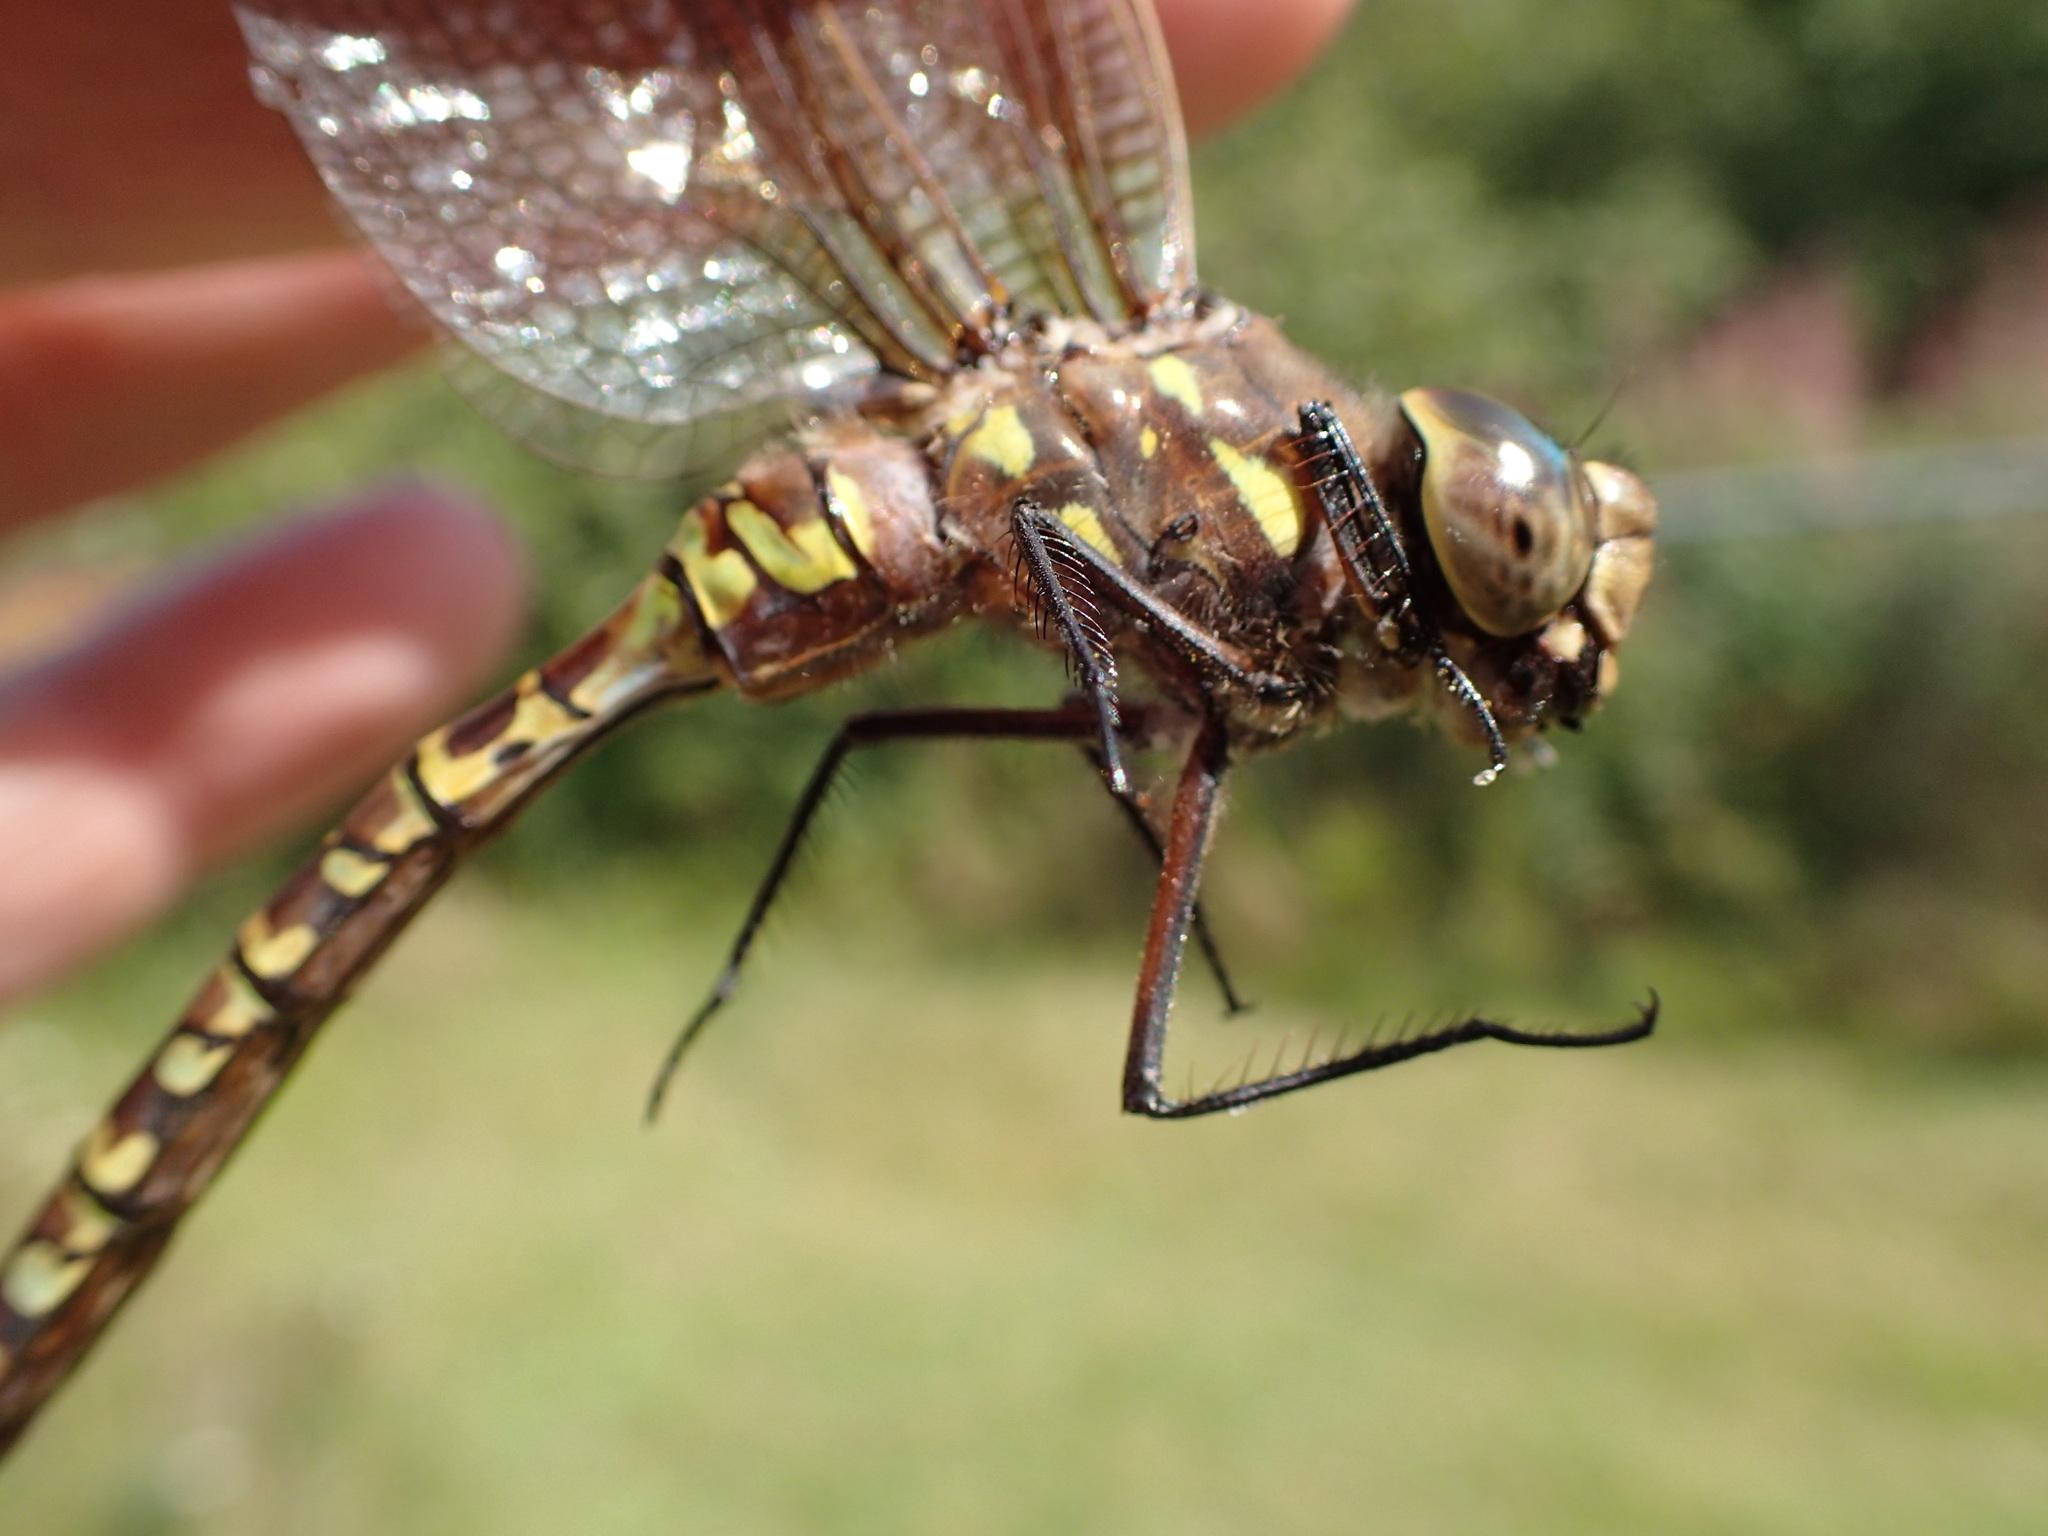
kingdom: Animalia
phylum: Arthropoda
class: Insecta
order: Odonata
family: Aeshnidae
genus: Aeshna
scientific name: Aeshna interrupta
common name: Variable darner
